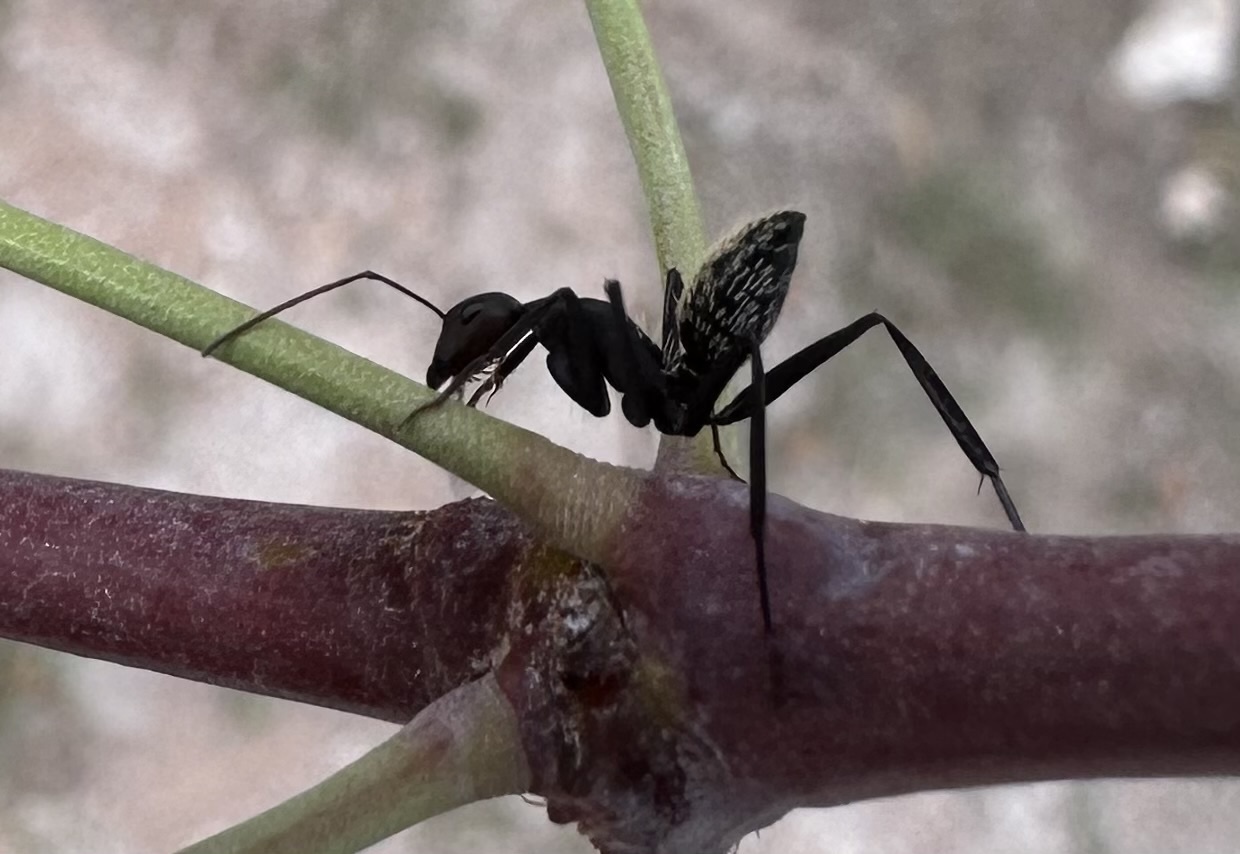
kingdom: Animalia
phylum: Arthropoda
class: Insecta
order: Hymenoptera
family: Formicidae
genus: Camponotus
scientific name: Camponotus fulvopilosus
